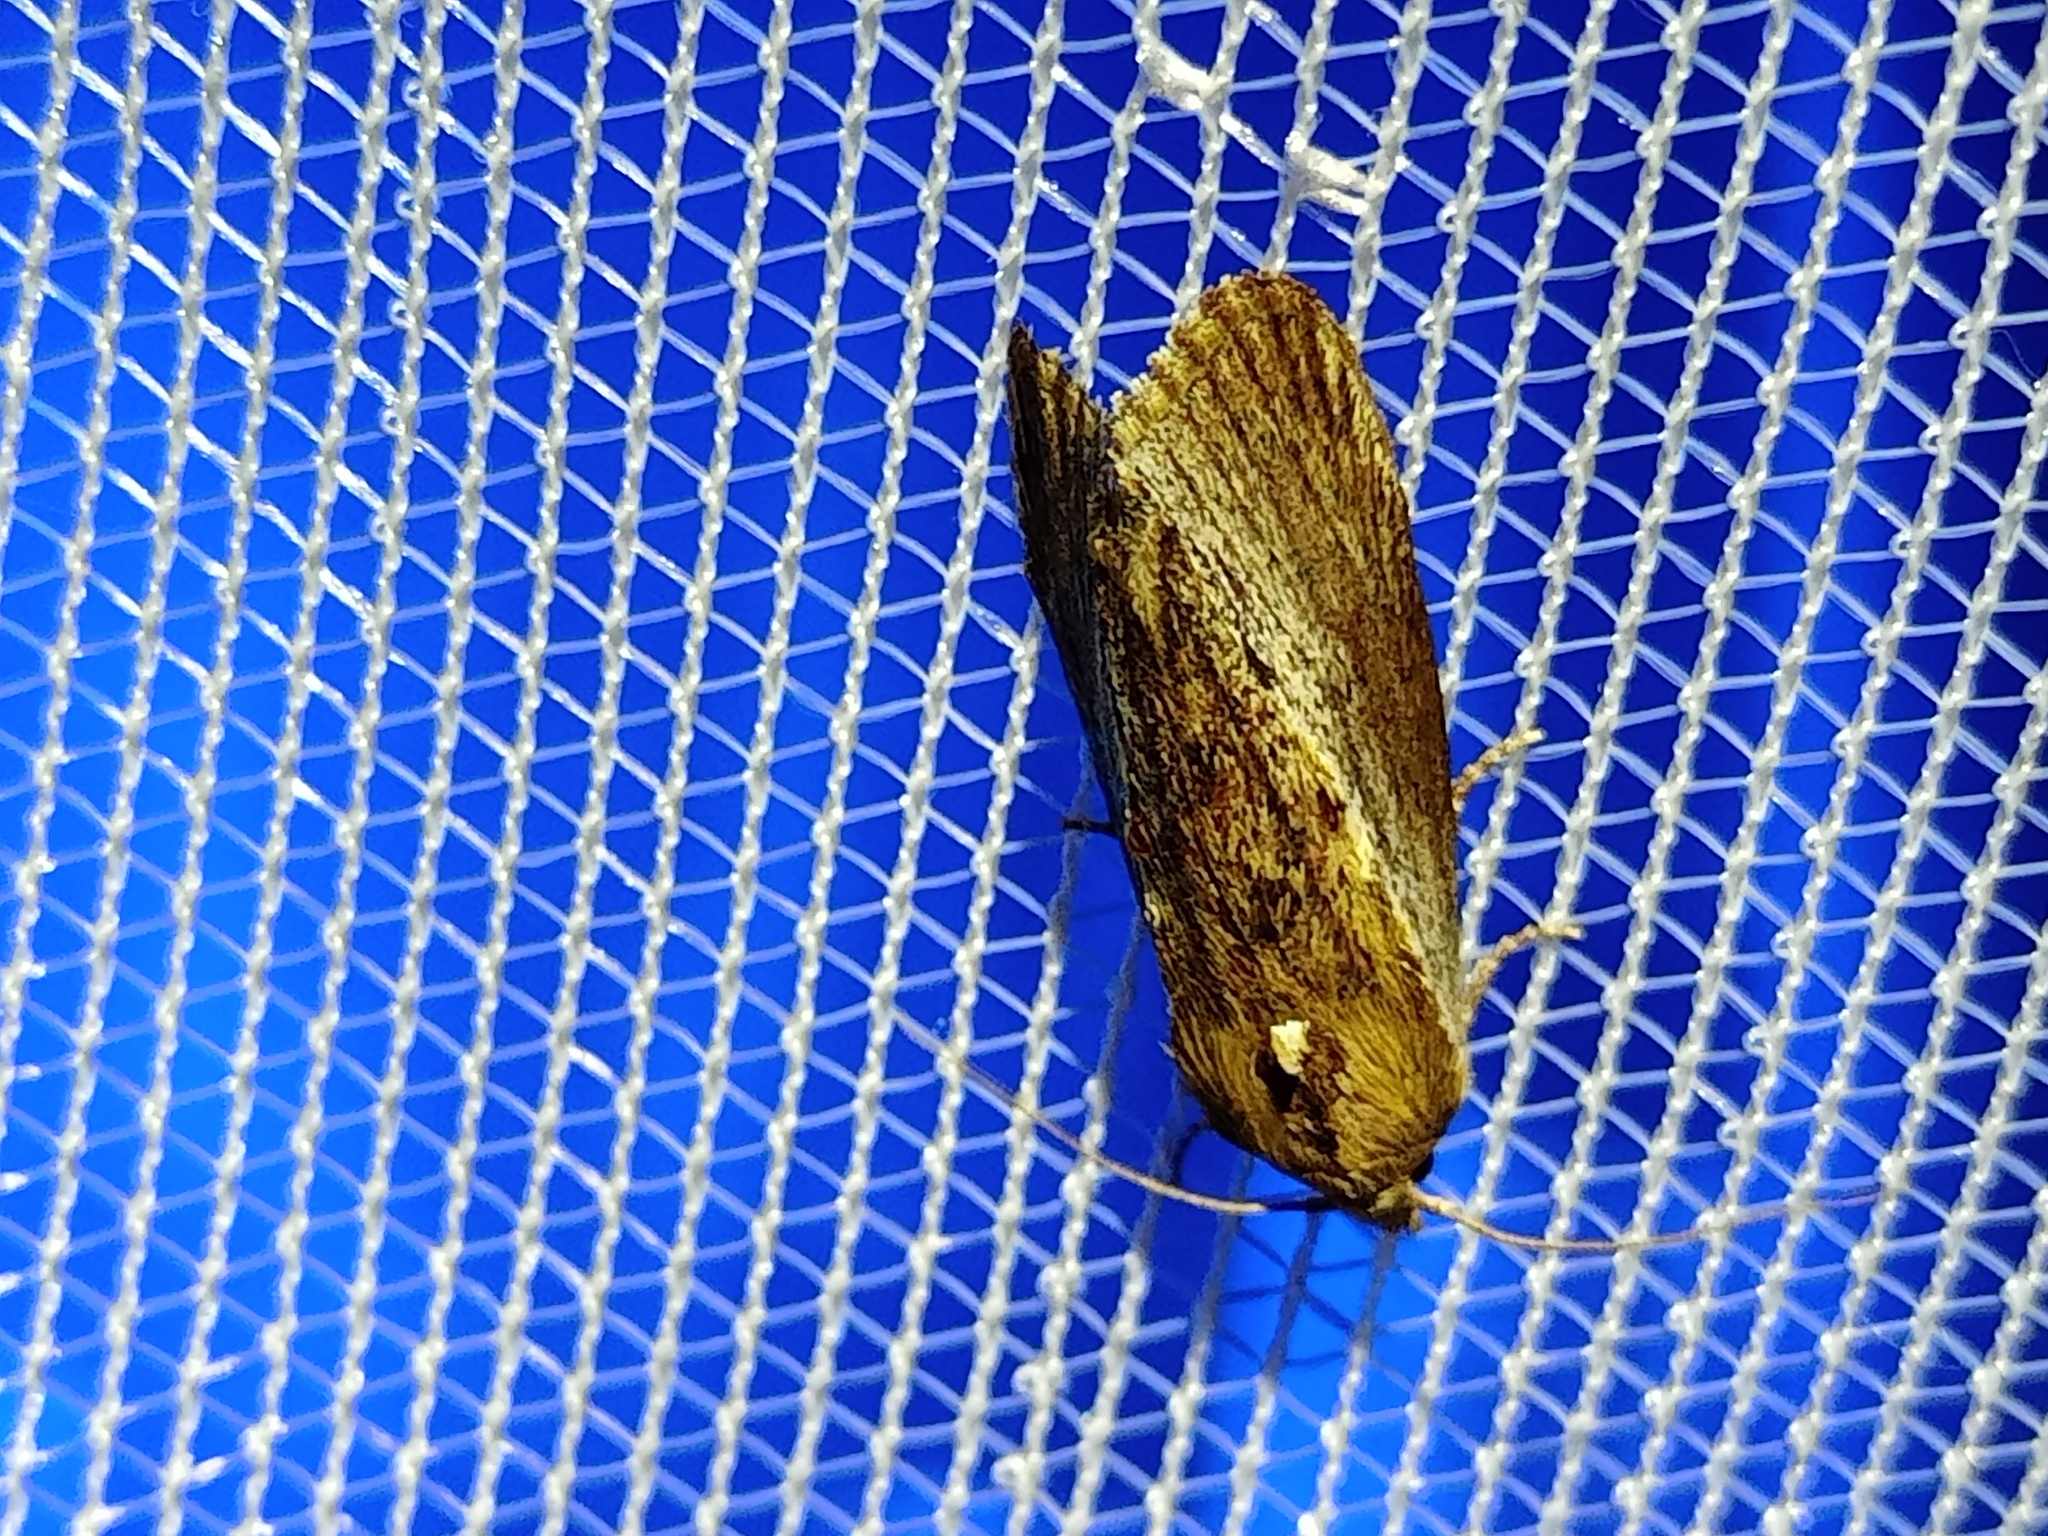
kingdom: Animalia
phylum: Arthropoda
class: Insecta
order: Lepidoptera
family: Pyralidae
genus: Galleria
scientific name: Galleria mellonella
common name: Greater wax moth
